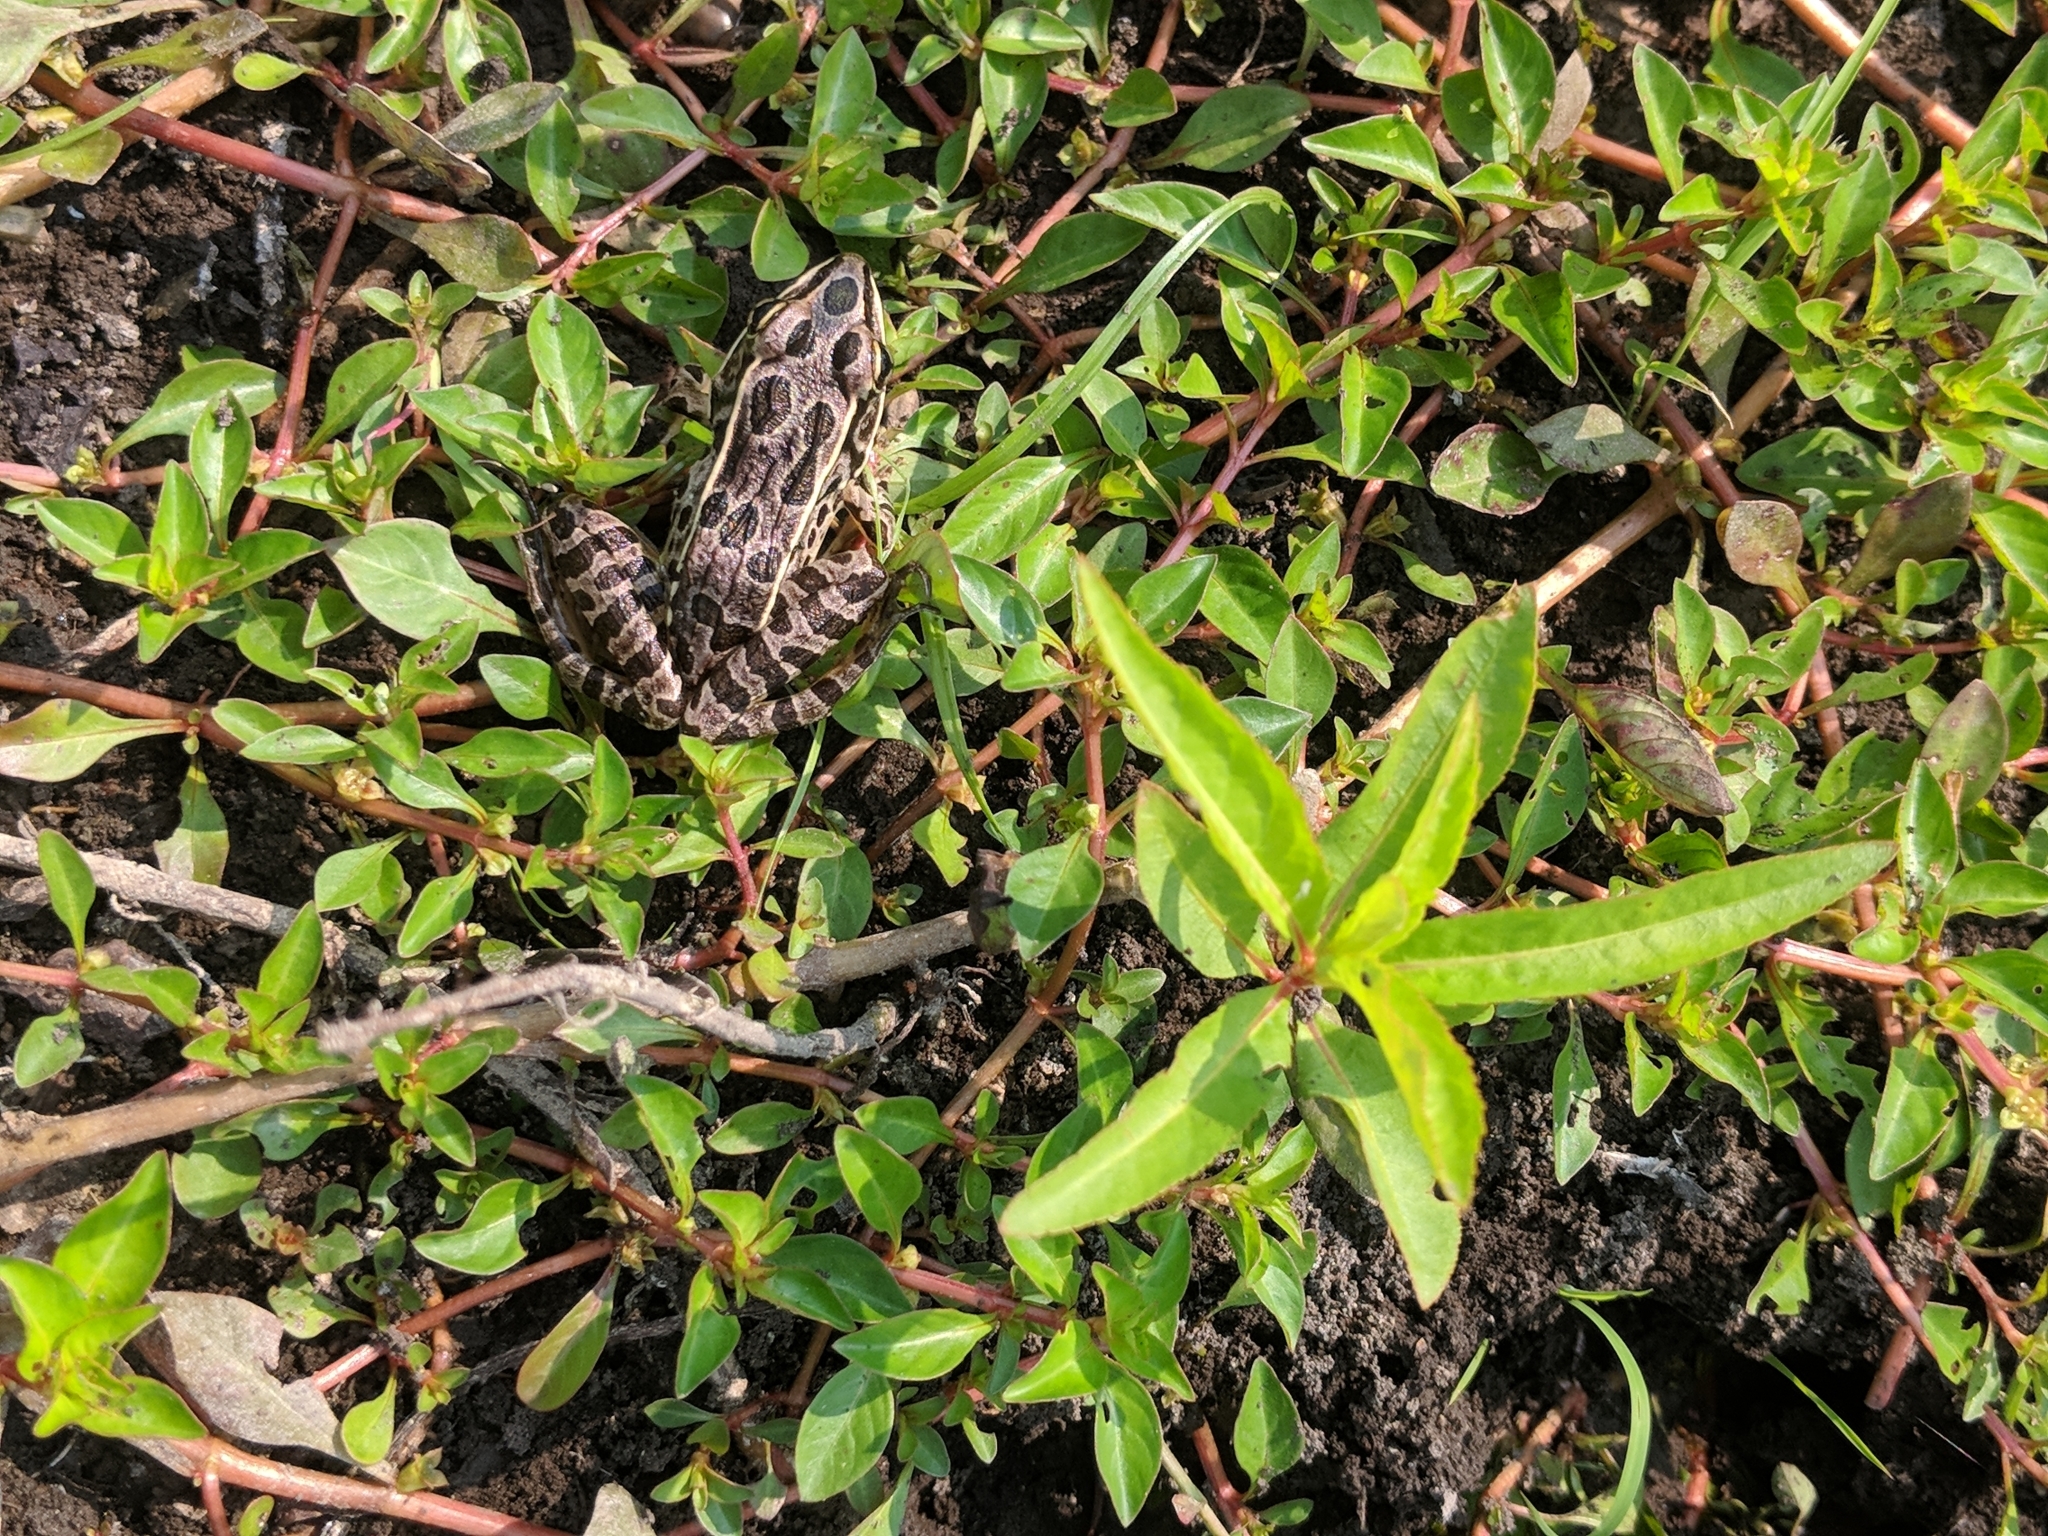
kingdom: Animalia
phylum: Chordata
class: Amphibia
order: Anura
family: Ranidae
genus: Lithobates
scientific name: Lithobates pipiens
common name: Northern leopard frog
